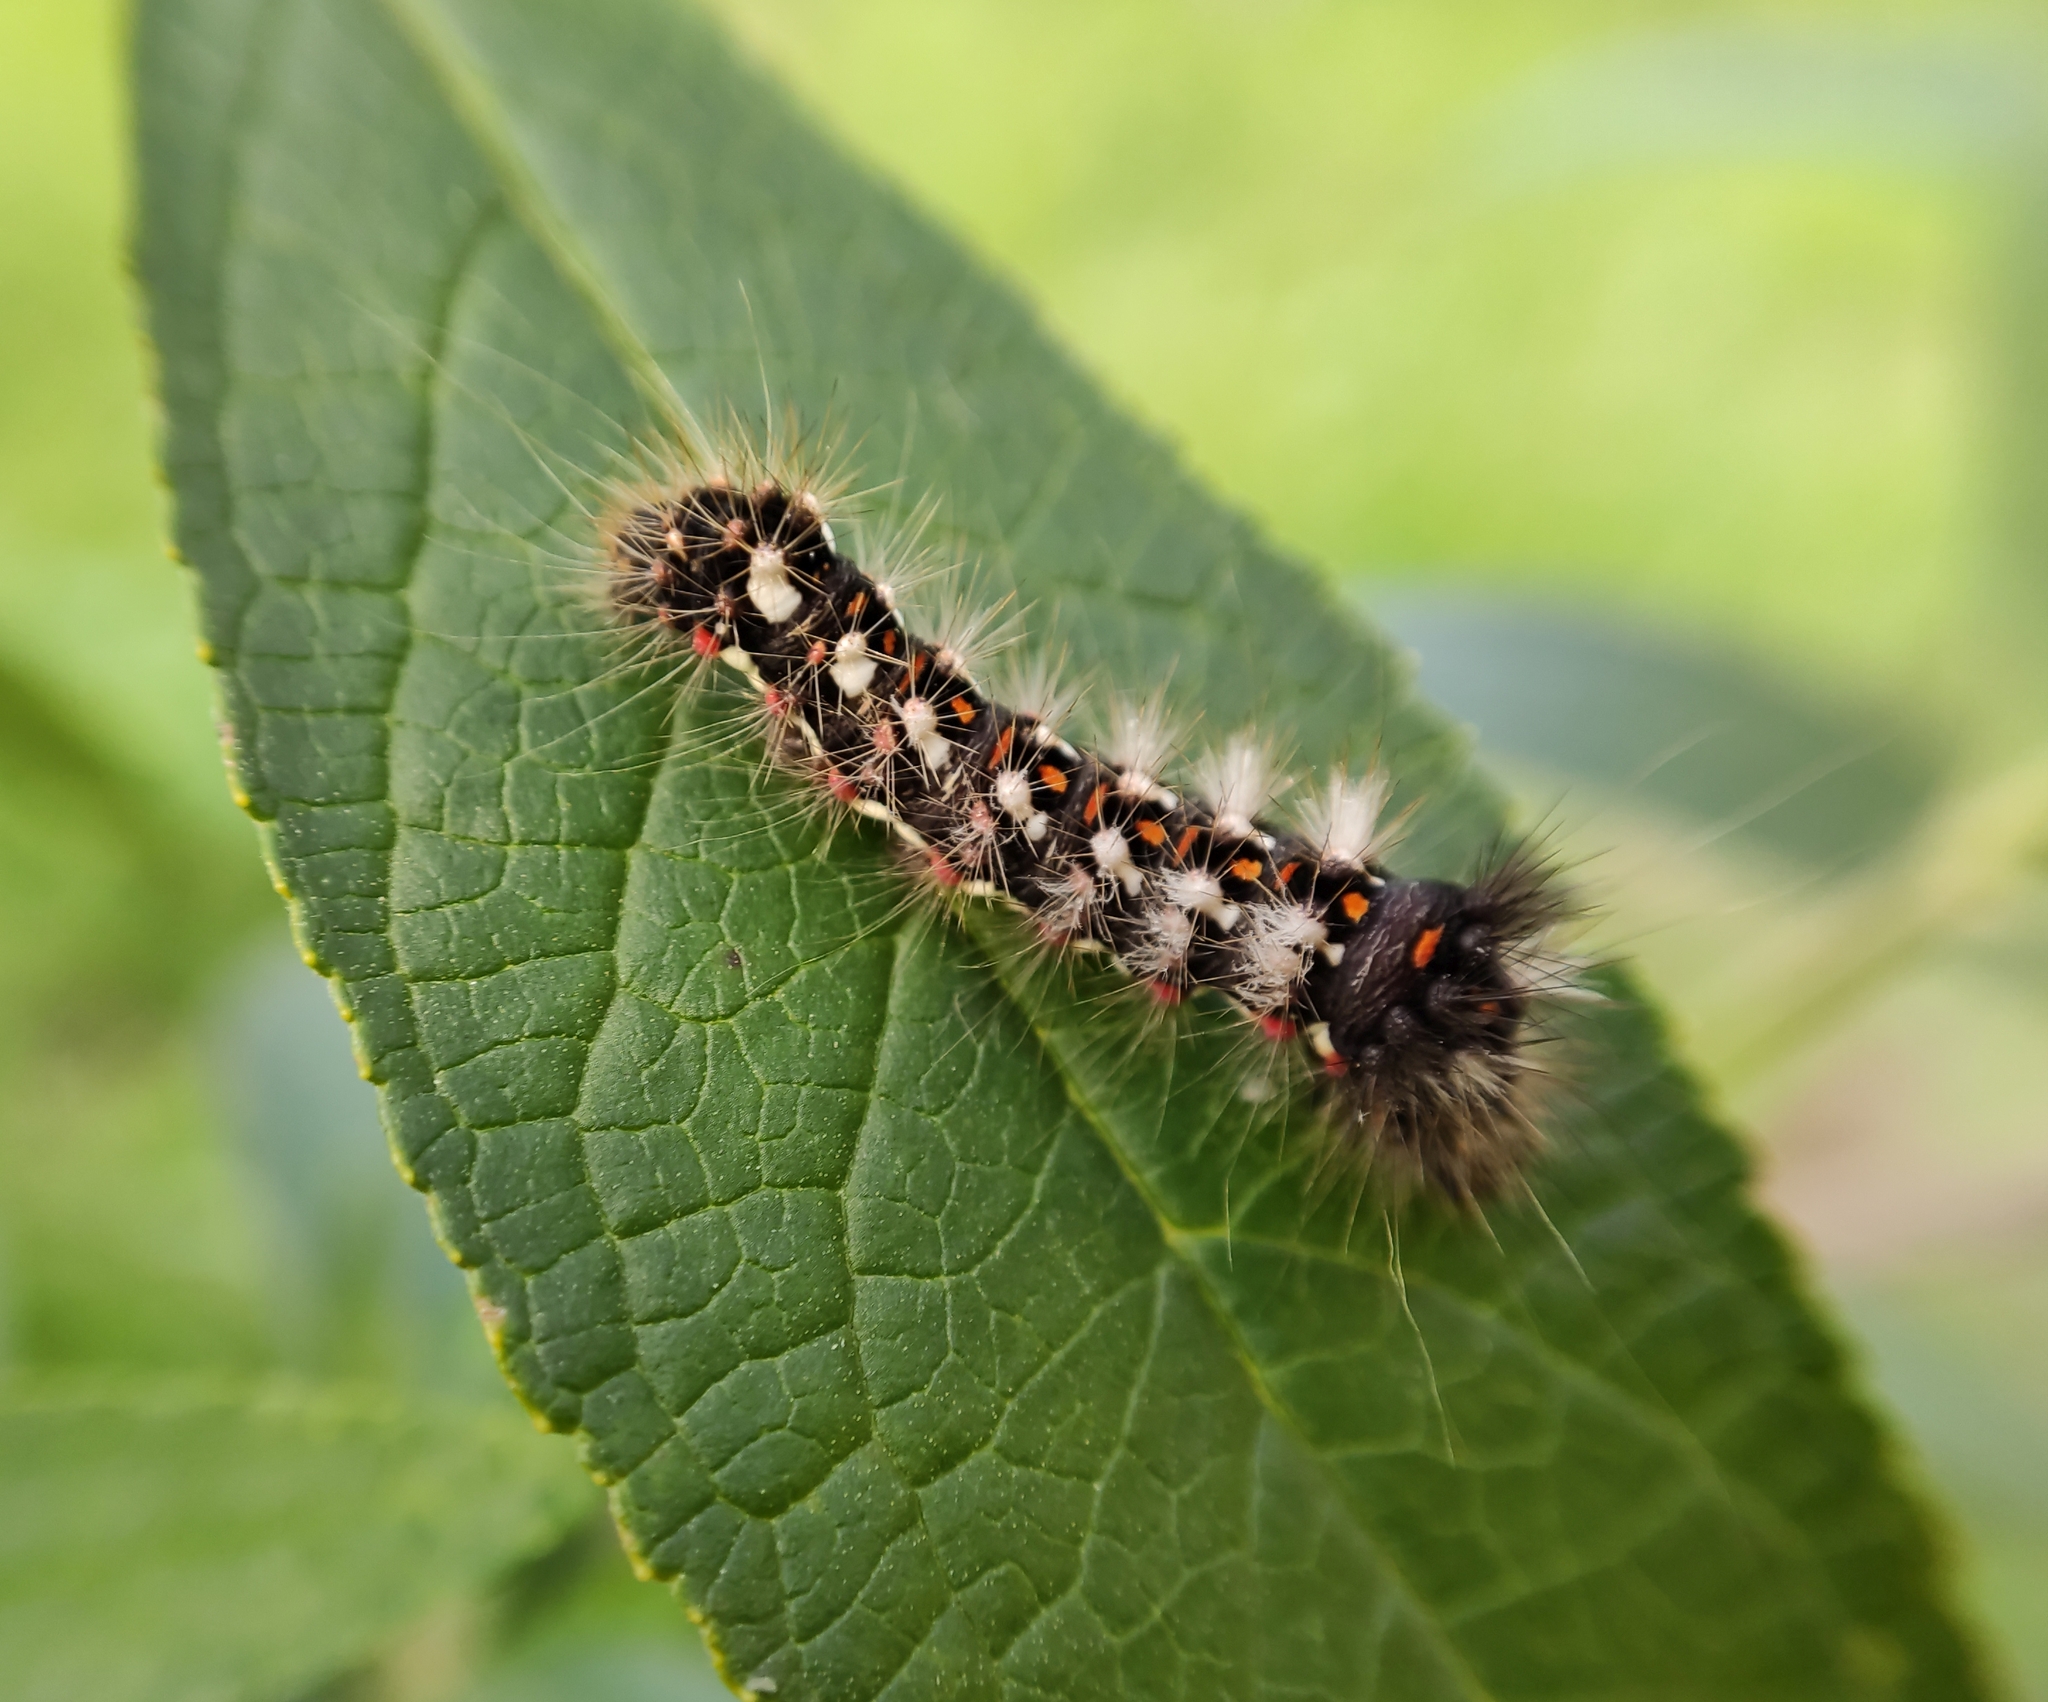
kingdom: Animalia
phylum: Arthropoda
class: Insecta
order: Lepidoptera
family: Noctuidae
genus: Acronicta
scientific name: Acronicta rumicis
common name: Knot grass
